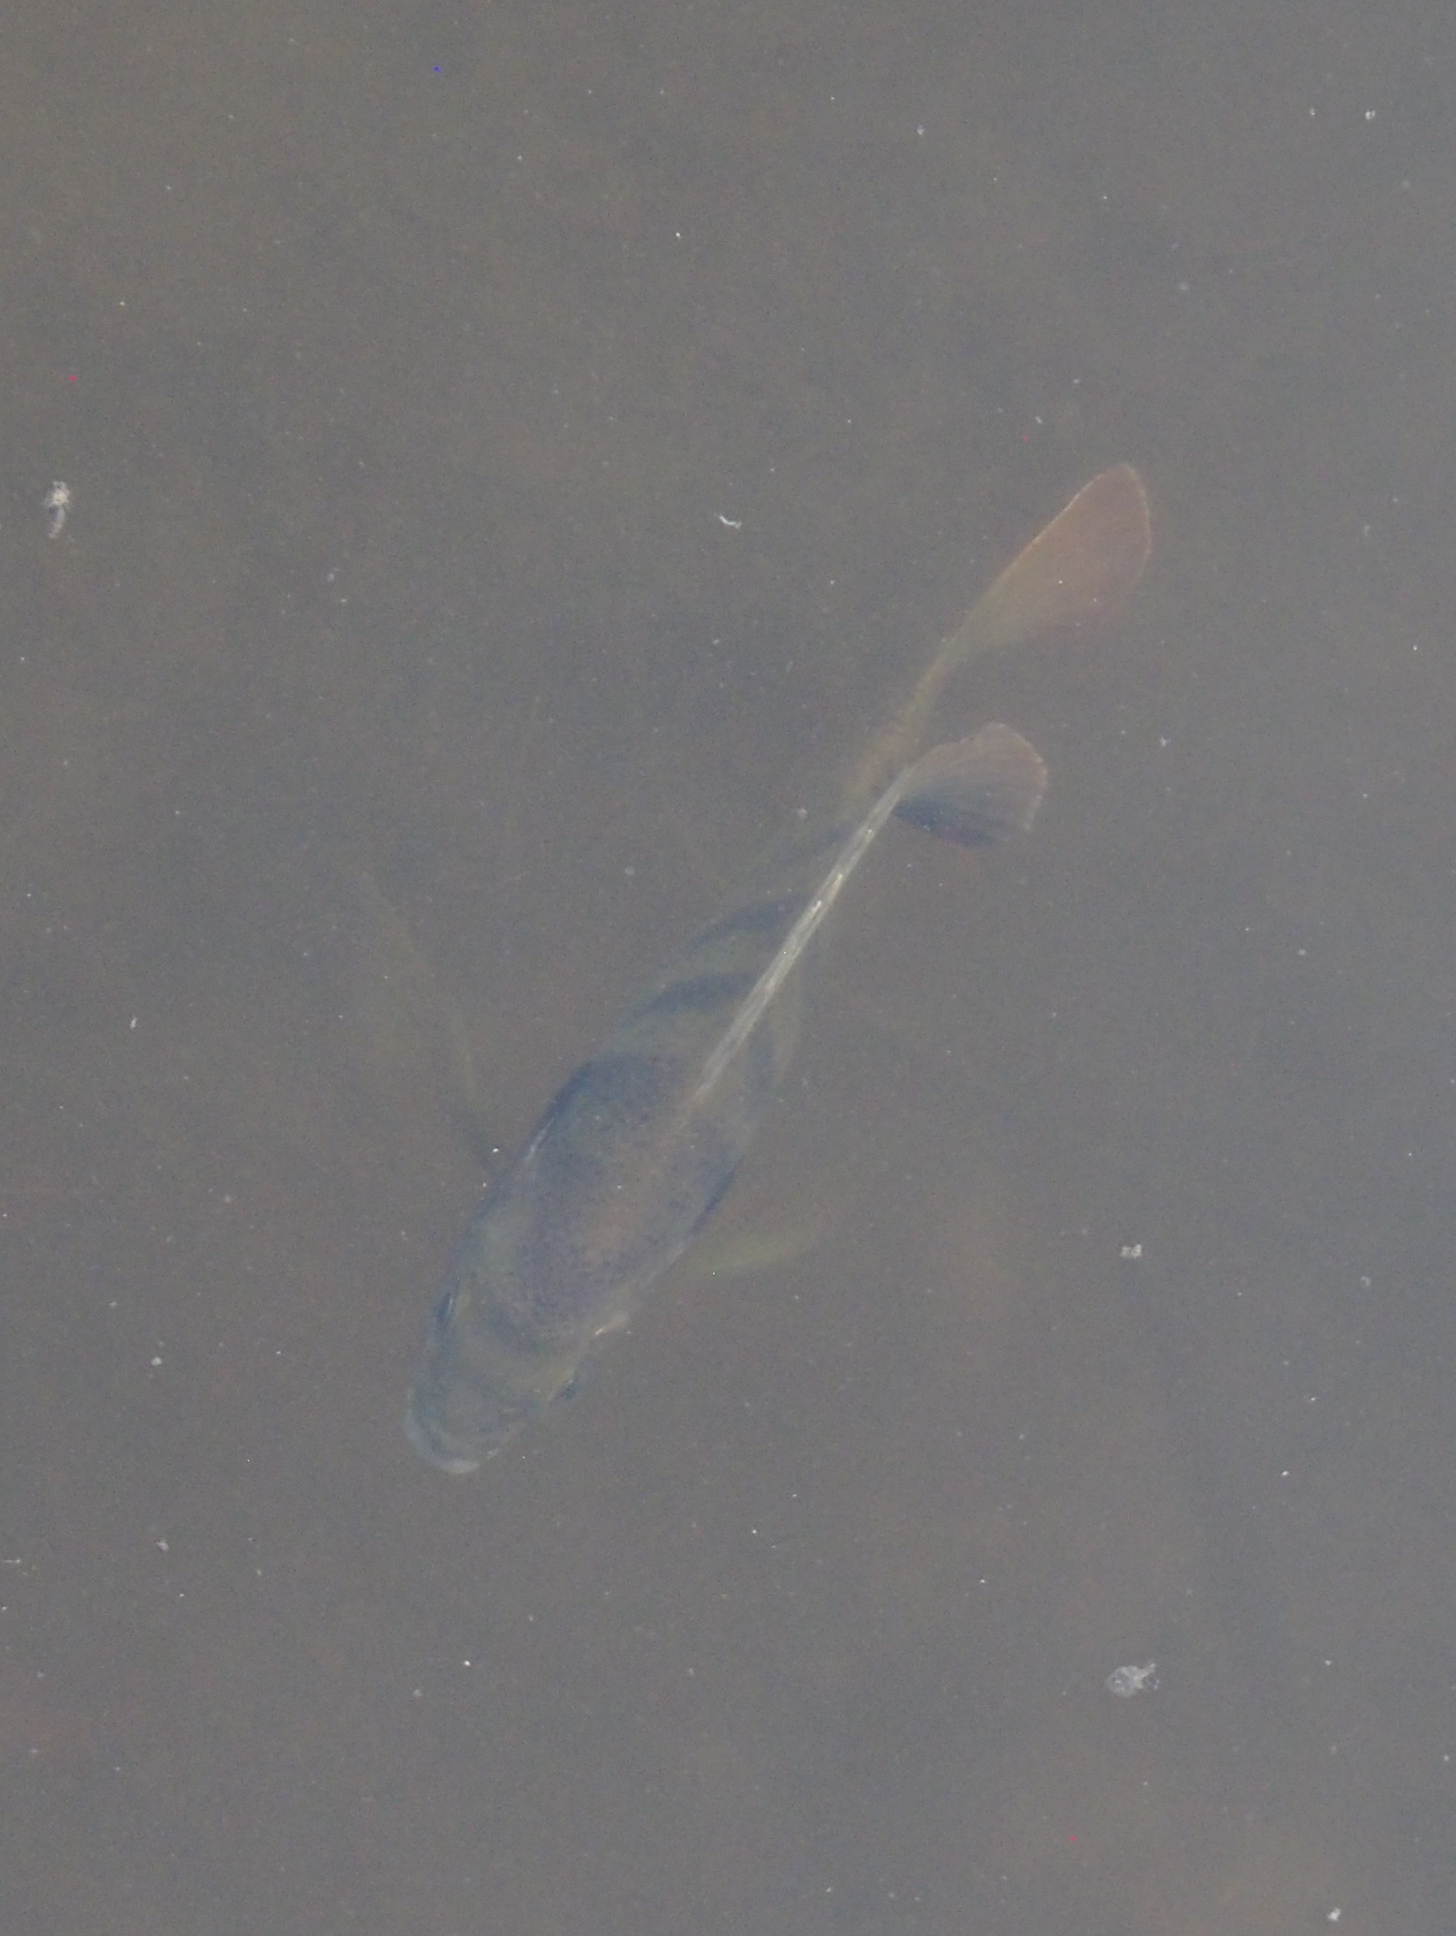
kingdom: Animalia
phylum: Chordata
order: Perciformes
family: Centrarchidae
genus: Lepomis
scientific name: Lepomis macrochirus
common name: Bluegill
